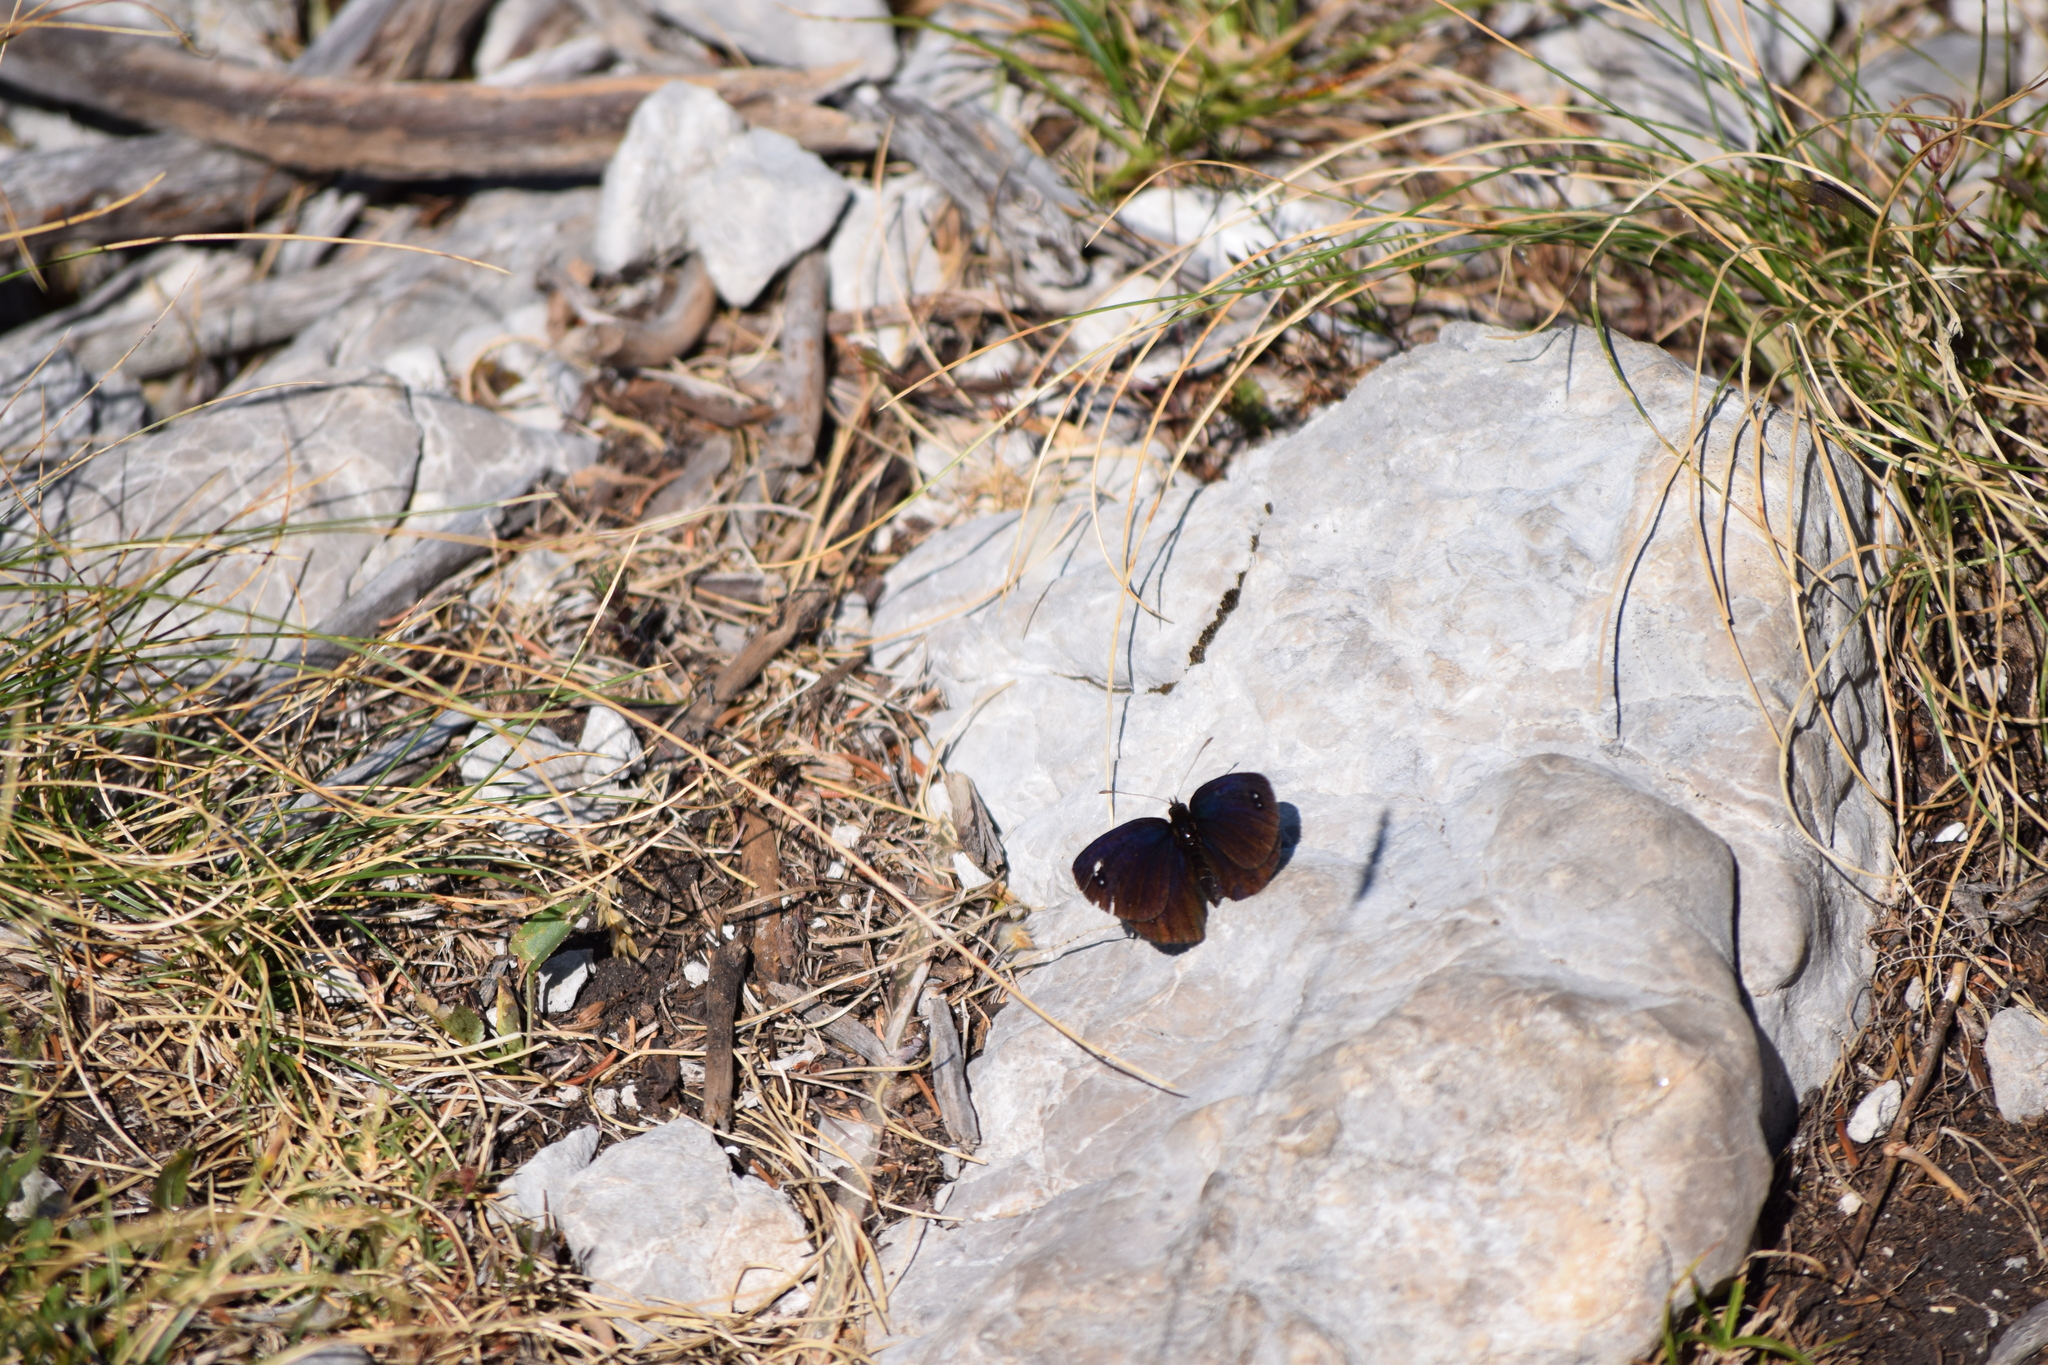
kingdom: Animalia
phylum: Arthropoda
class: Insecta
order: Lepidoptera
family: Nymphalidae
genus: Erebia
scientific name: Erebia melas
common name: Black ringlet
